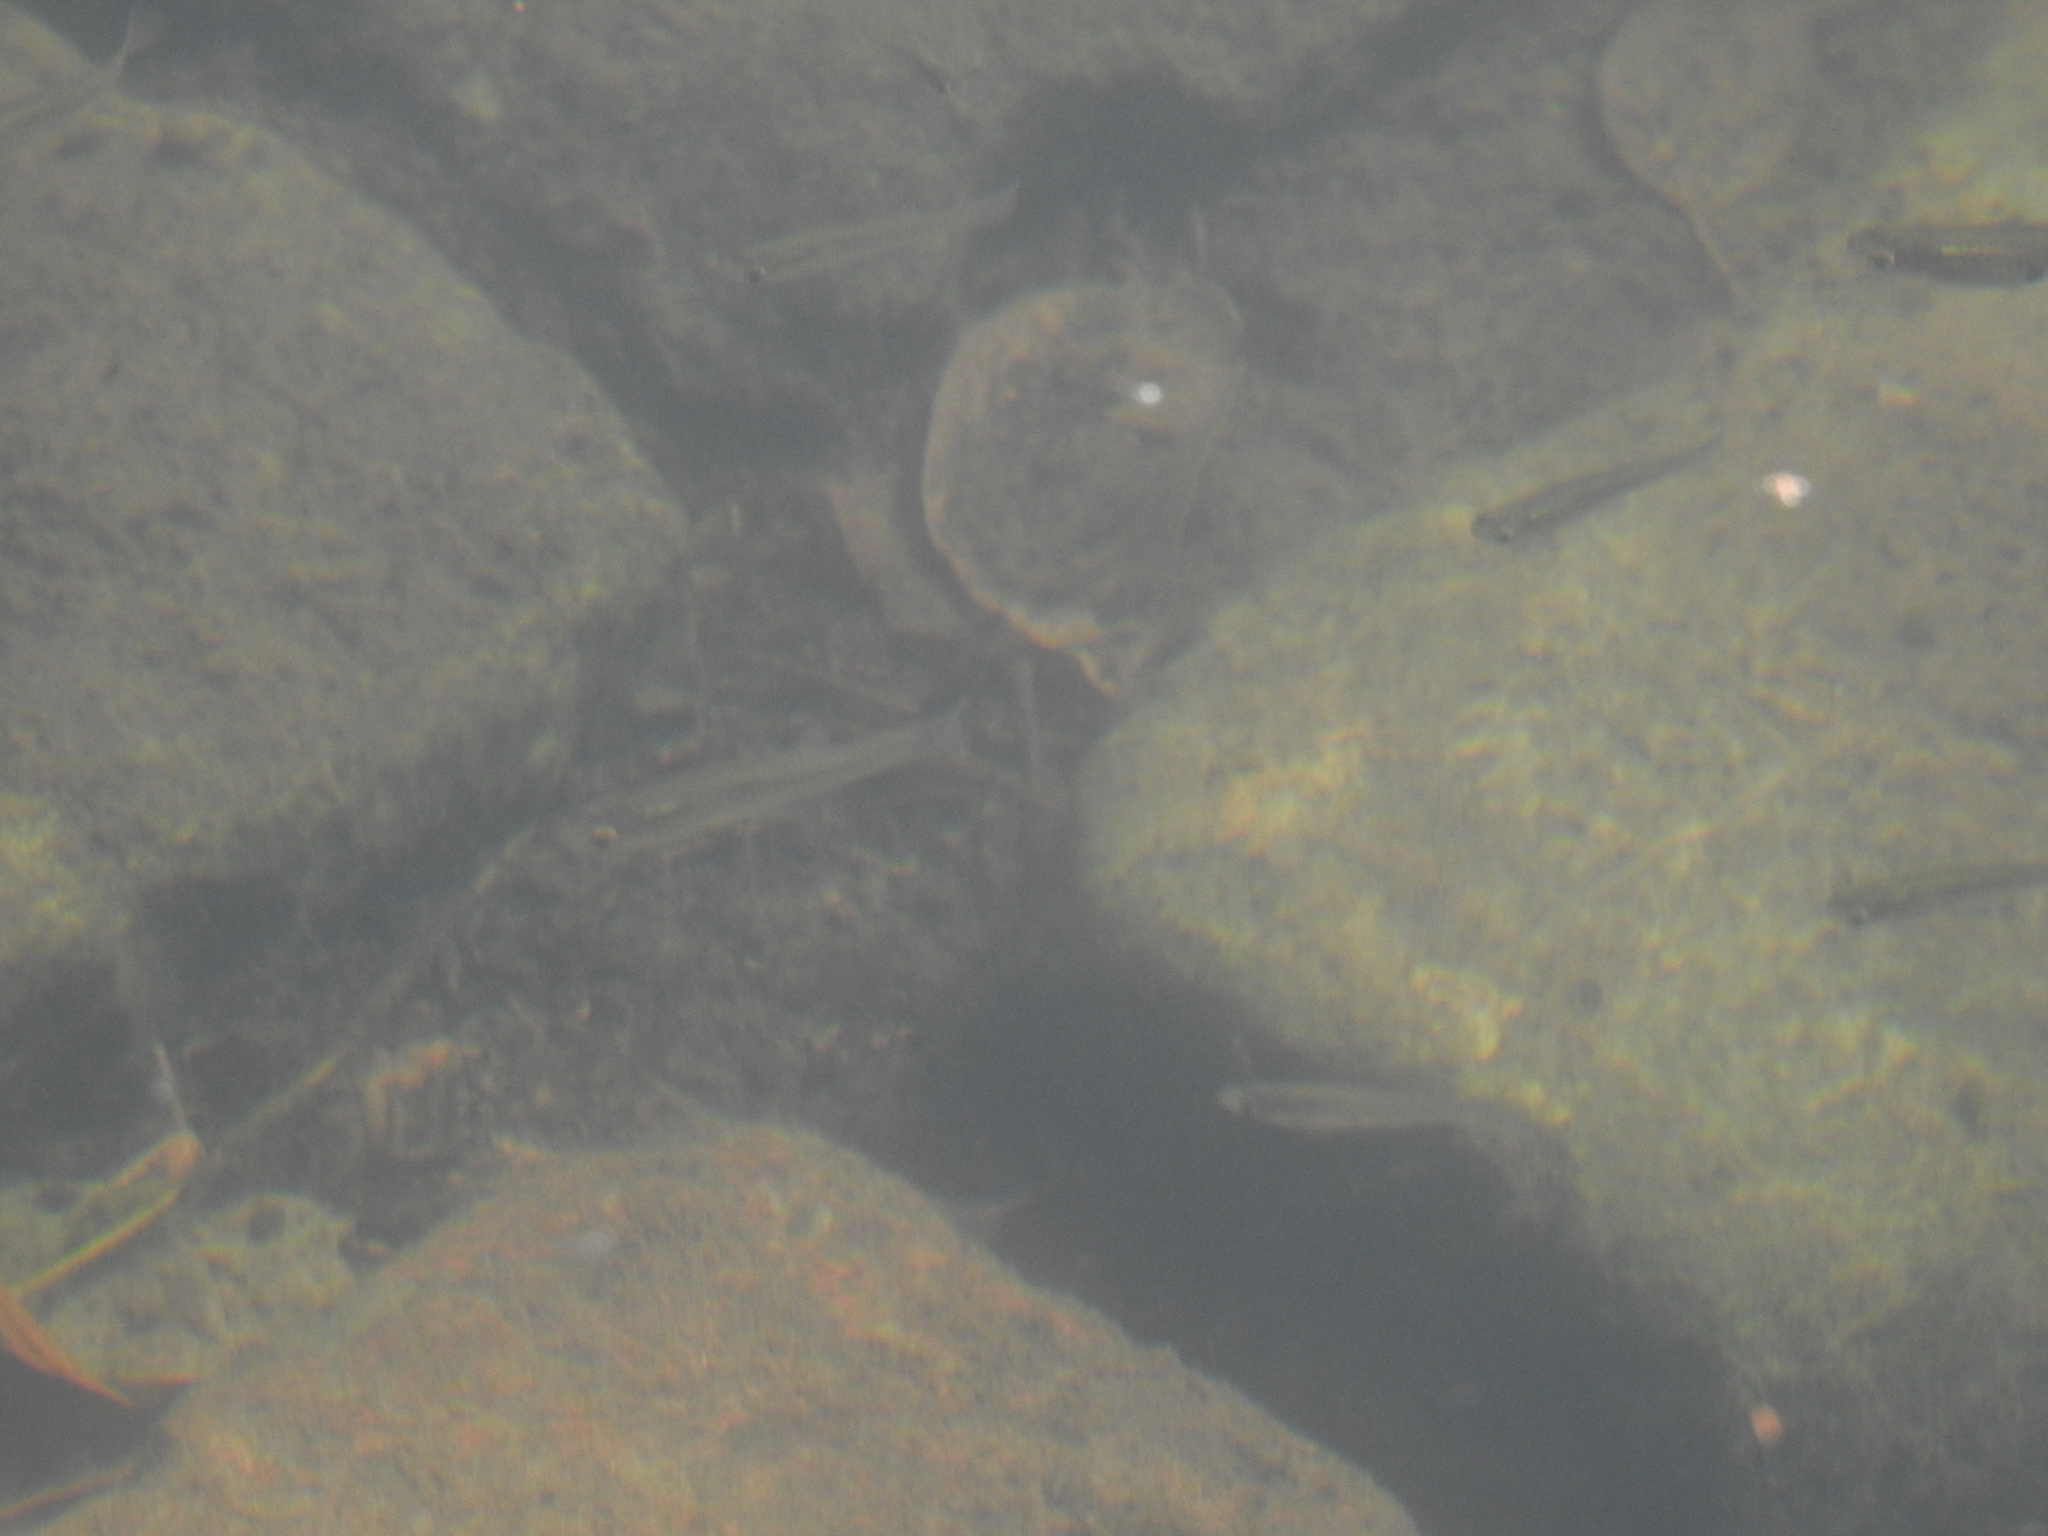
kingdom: Animalia
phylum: Chordata
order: Cyprinodontiformes
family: Poeciliidae
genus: Gambusia
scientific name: Gambusia affinis
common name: Mosquitofish
